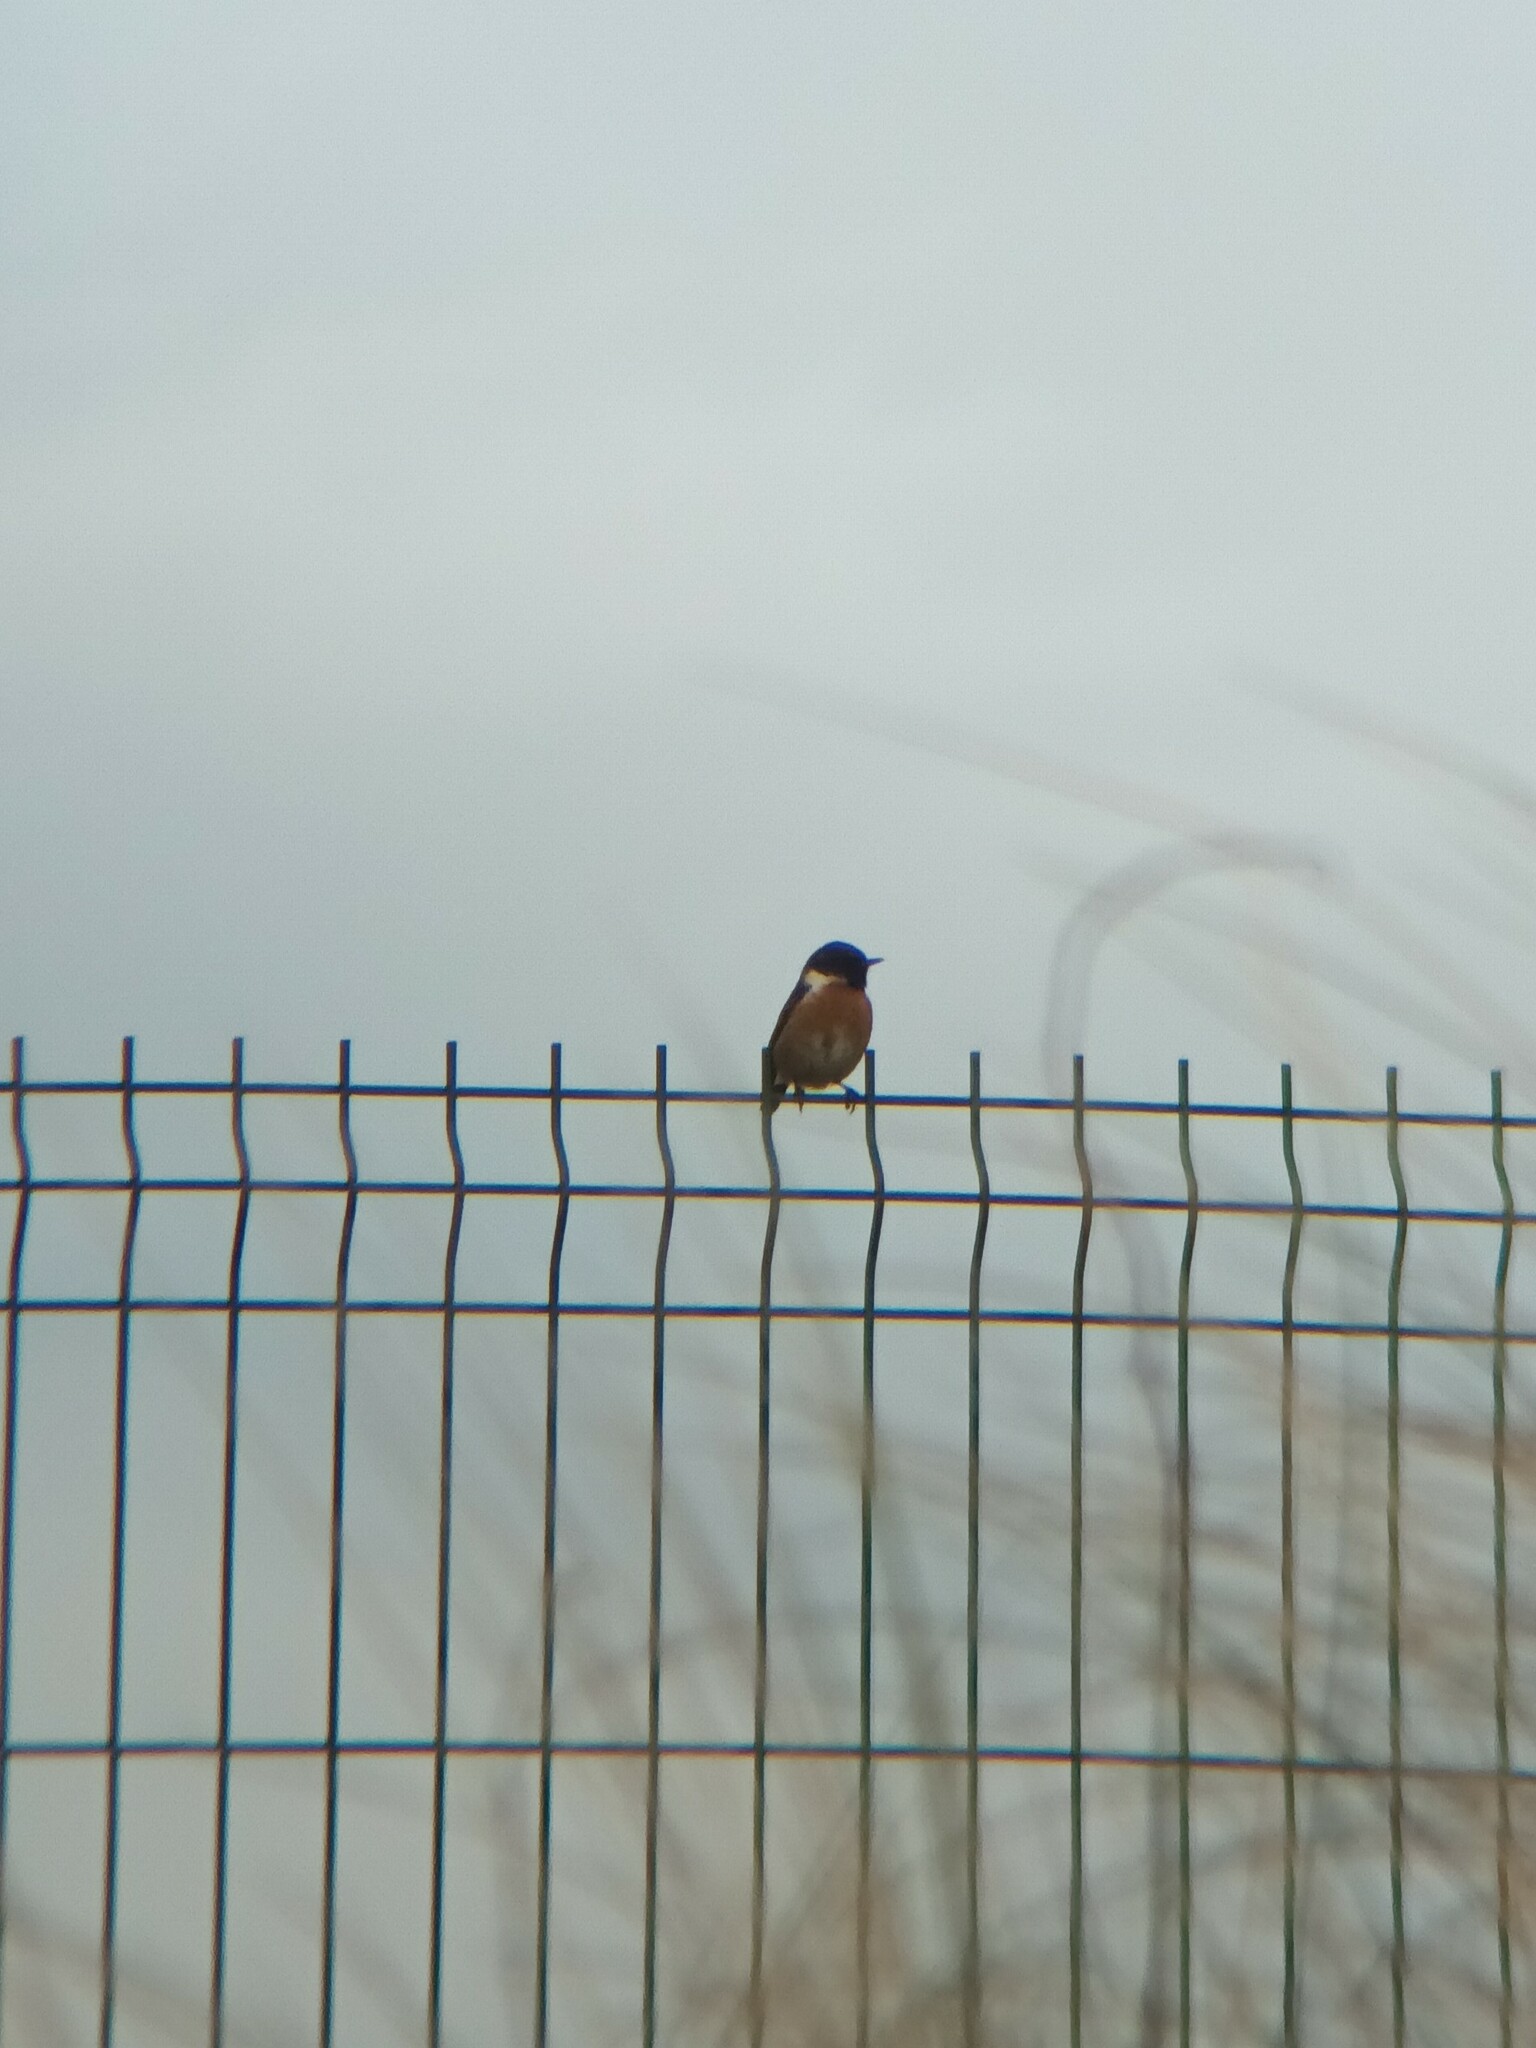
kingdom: Animalia
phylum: Chordata
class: Aves
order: Passeriformes
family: Muscicapidae
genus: Saxicola
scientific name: Saxicola rubicola
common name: European stonechat
